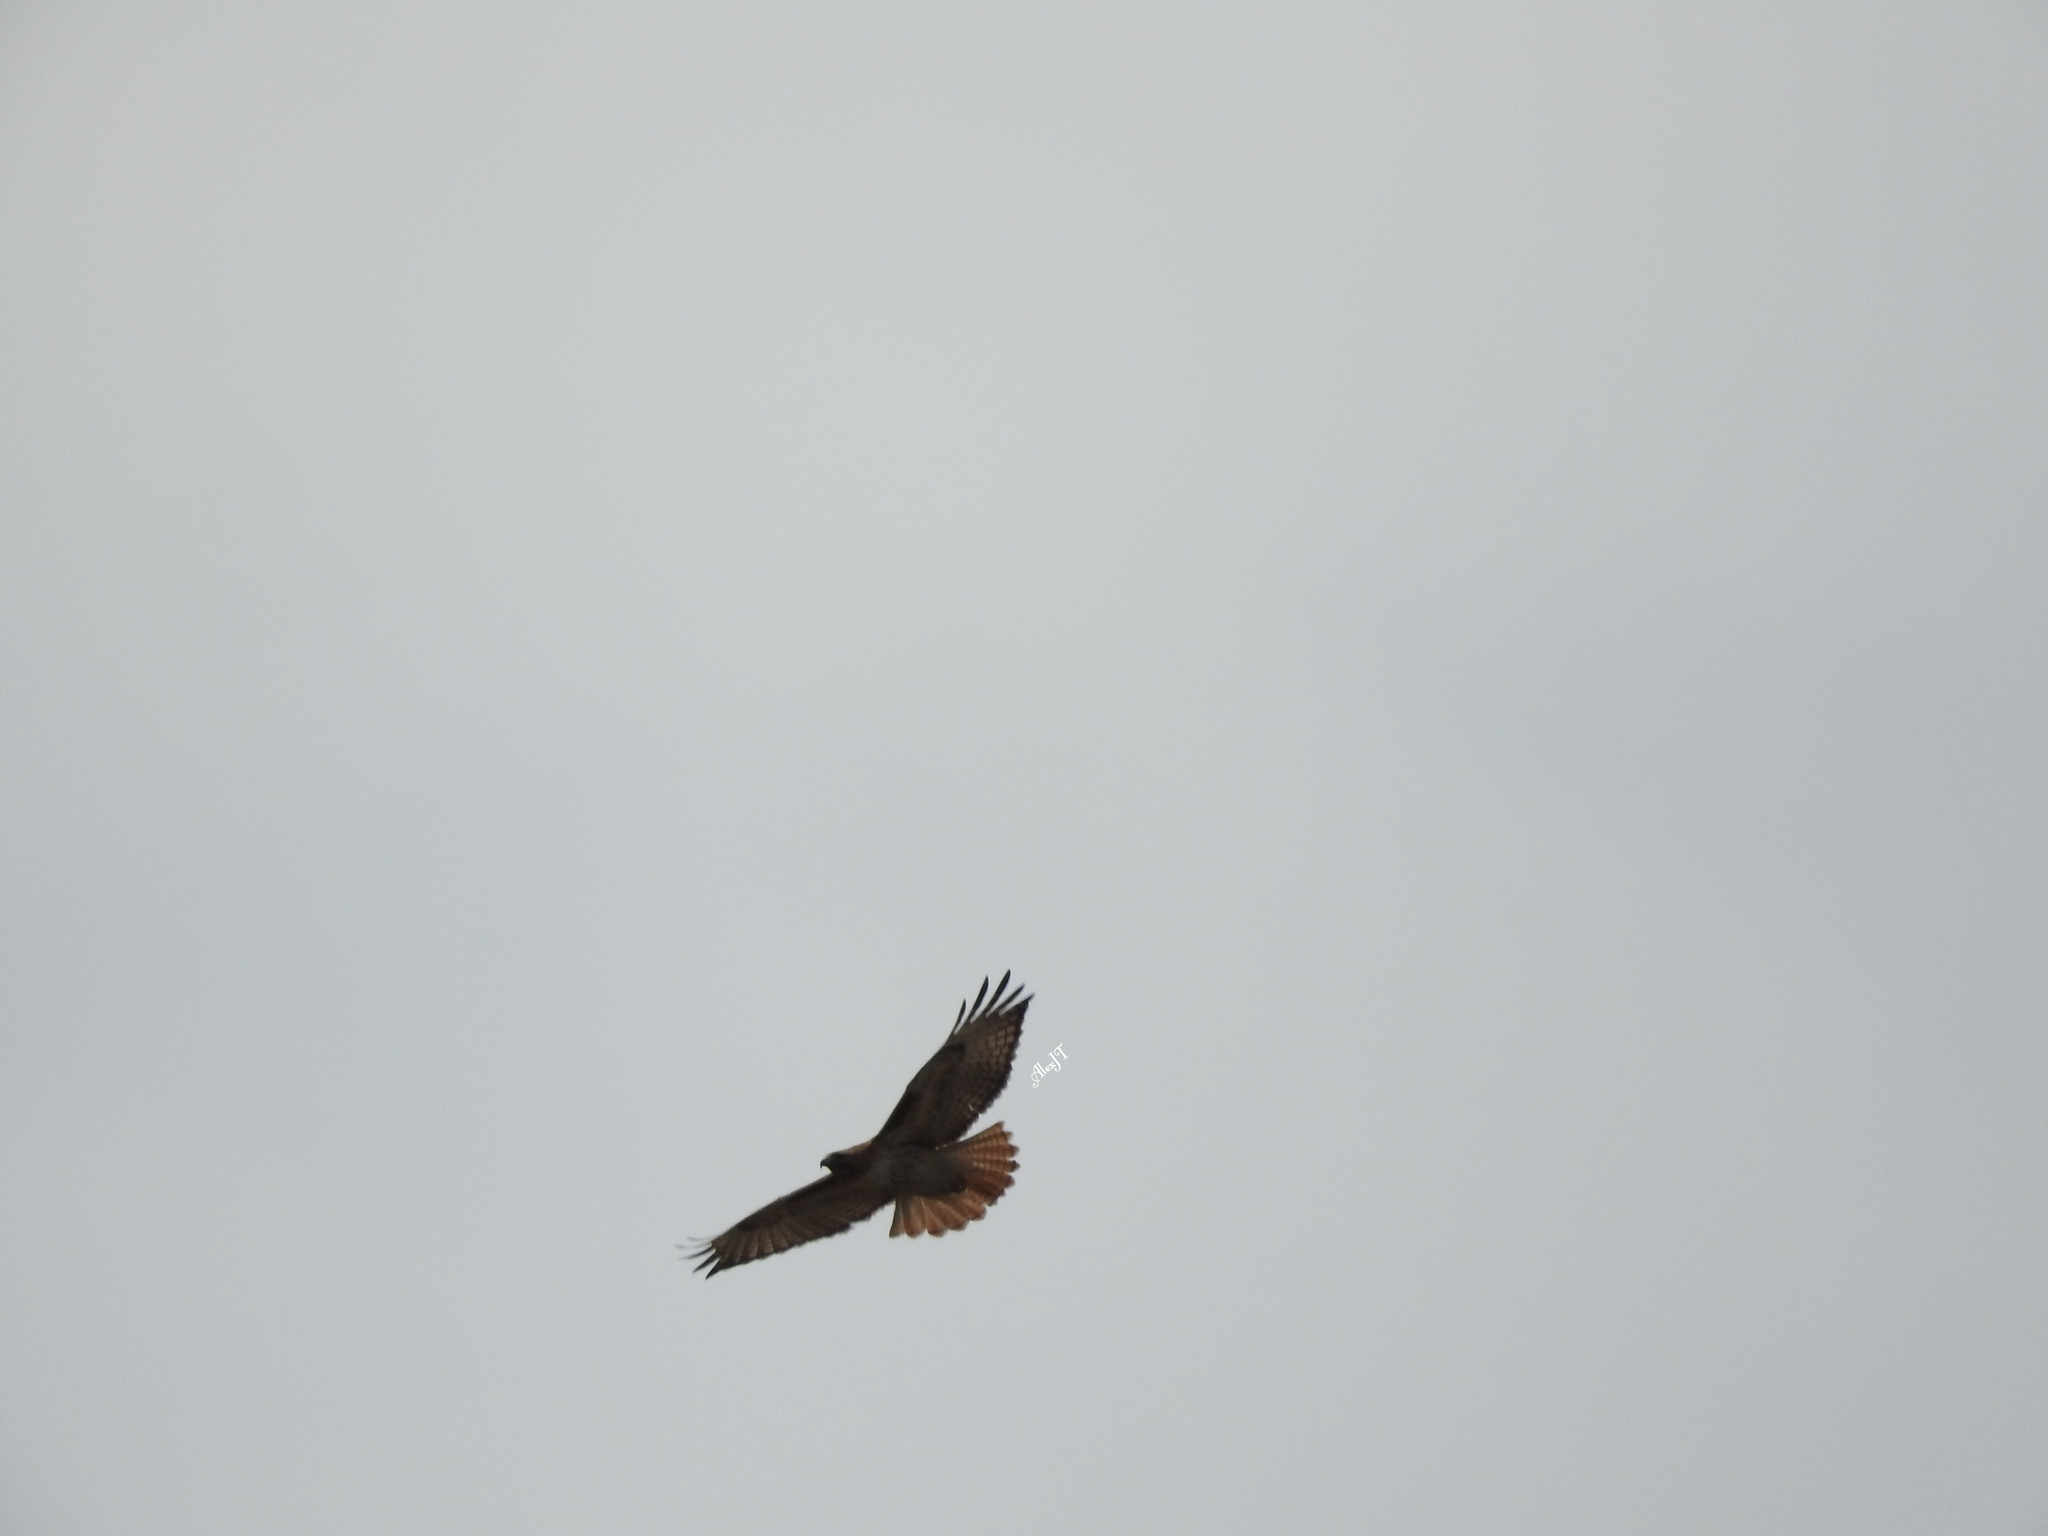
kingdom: Animalia
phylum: Chordata
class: Aves
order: Accipitriformes
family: Accipitridae
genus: Buteo
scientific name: Buteo jamaicensis
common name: Red-tailed hawk
